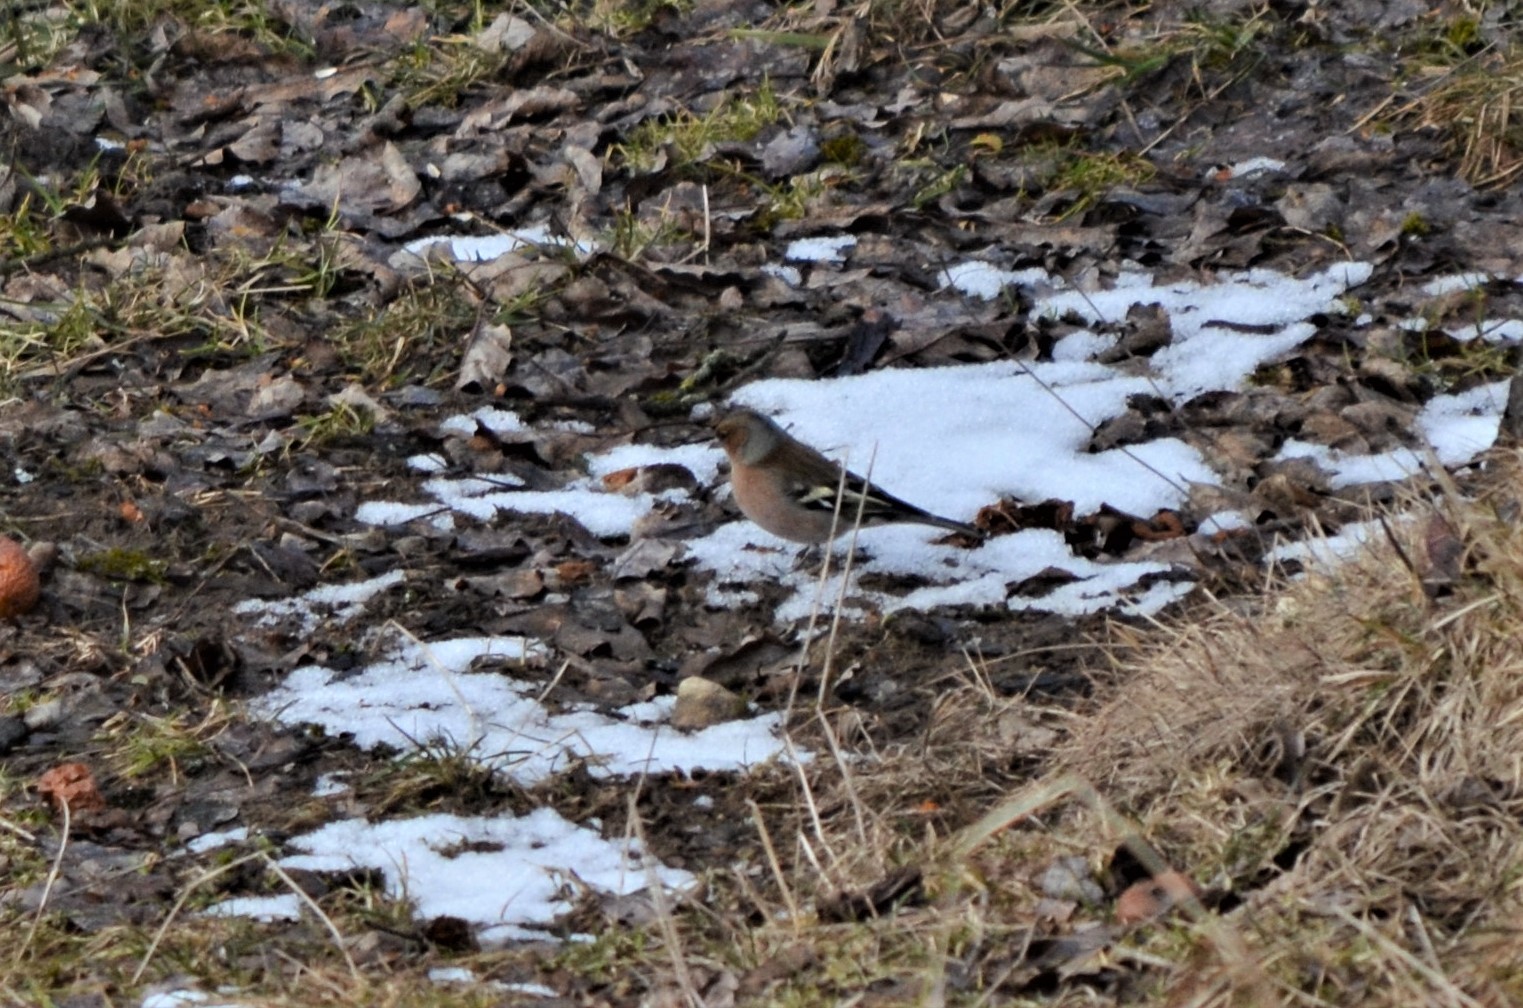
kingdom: Animalia
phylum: Chordata
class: Aves
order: Passeriformes
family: Fringillidae
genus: Fringilla
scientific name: Fringilla coelebs
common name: Common chaffinch
